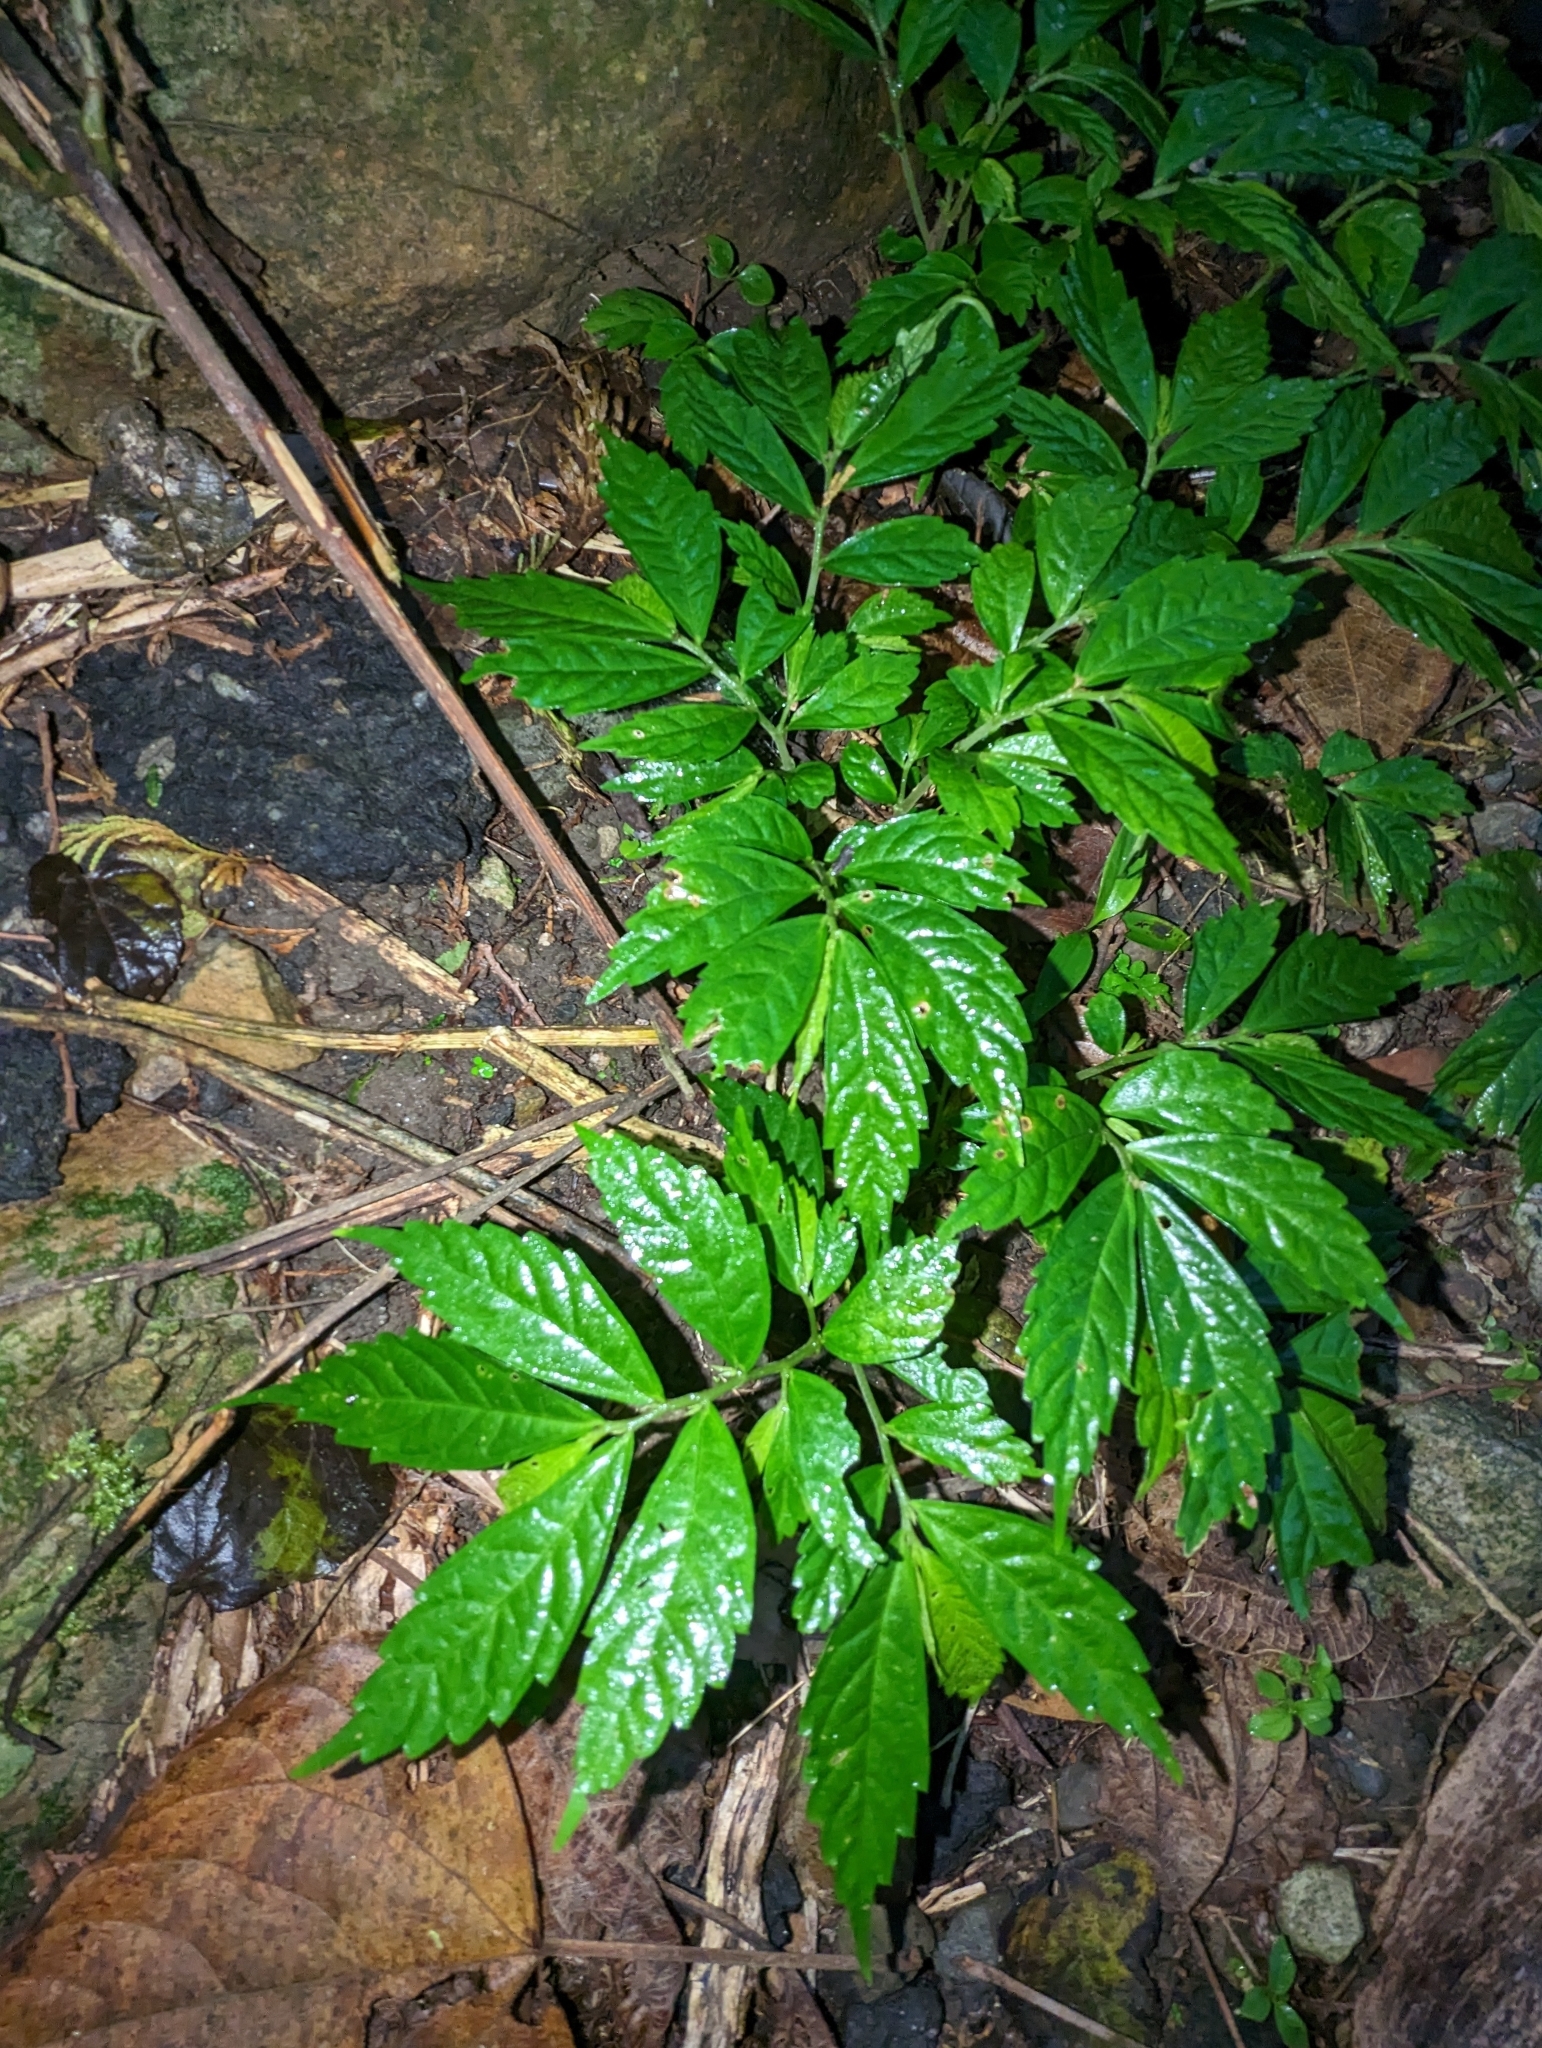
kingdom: Plantae
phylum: Tracheophyta
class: Magnoliopsida
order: Rosales
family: Urticaceae
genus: Elatostema
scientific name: Elatostema lineolatum
